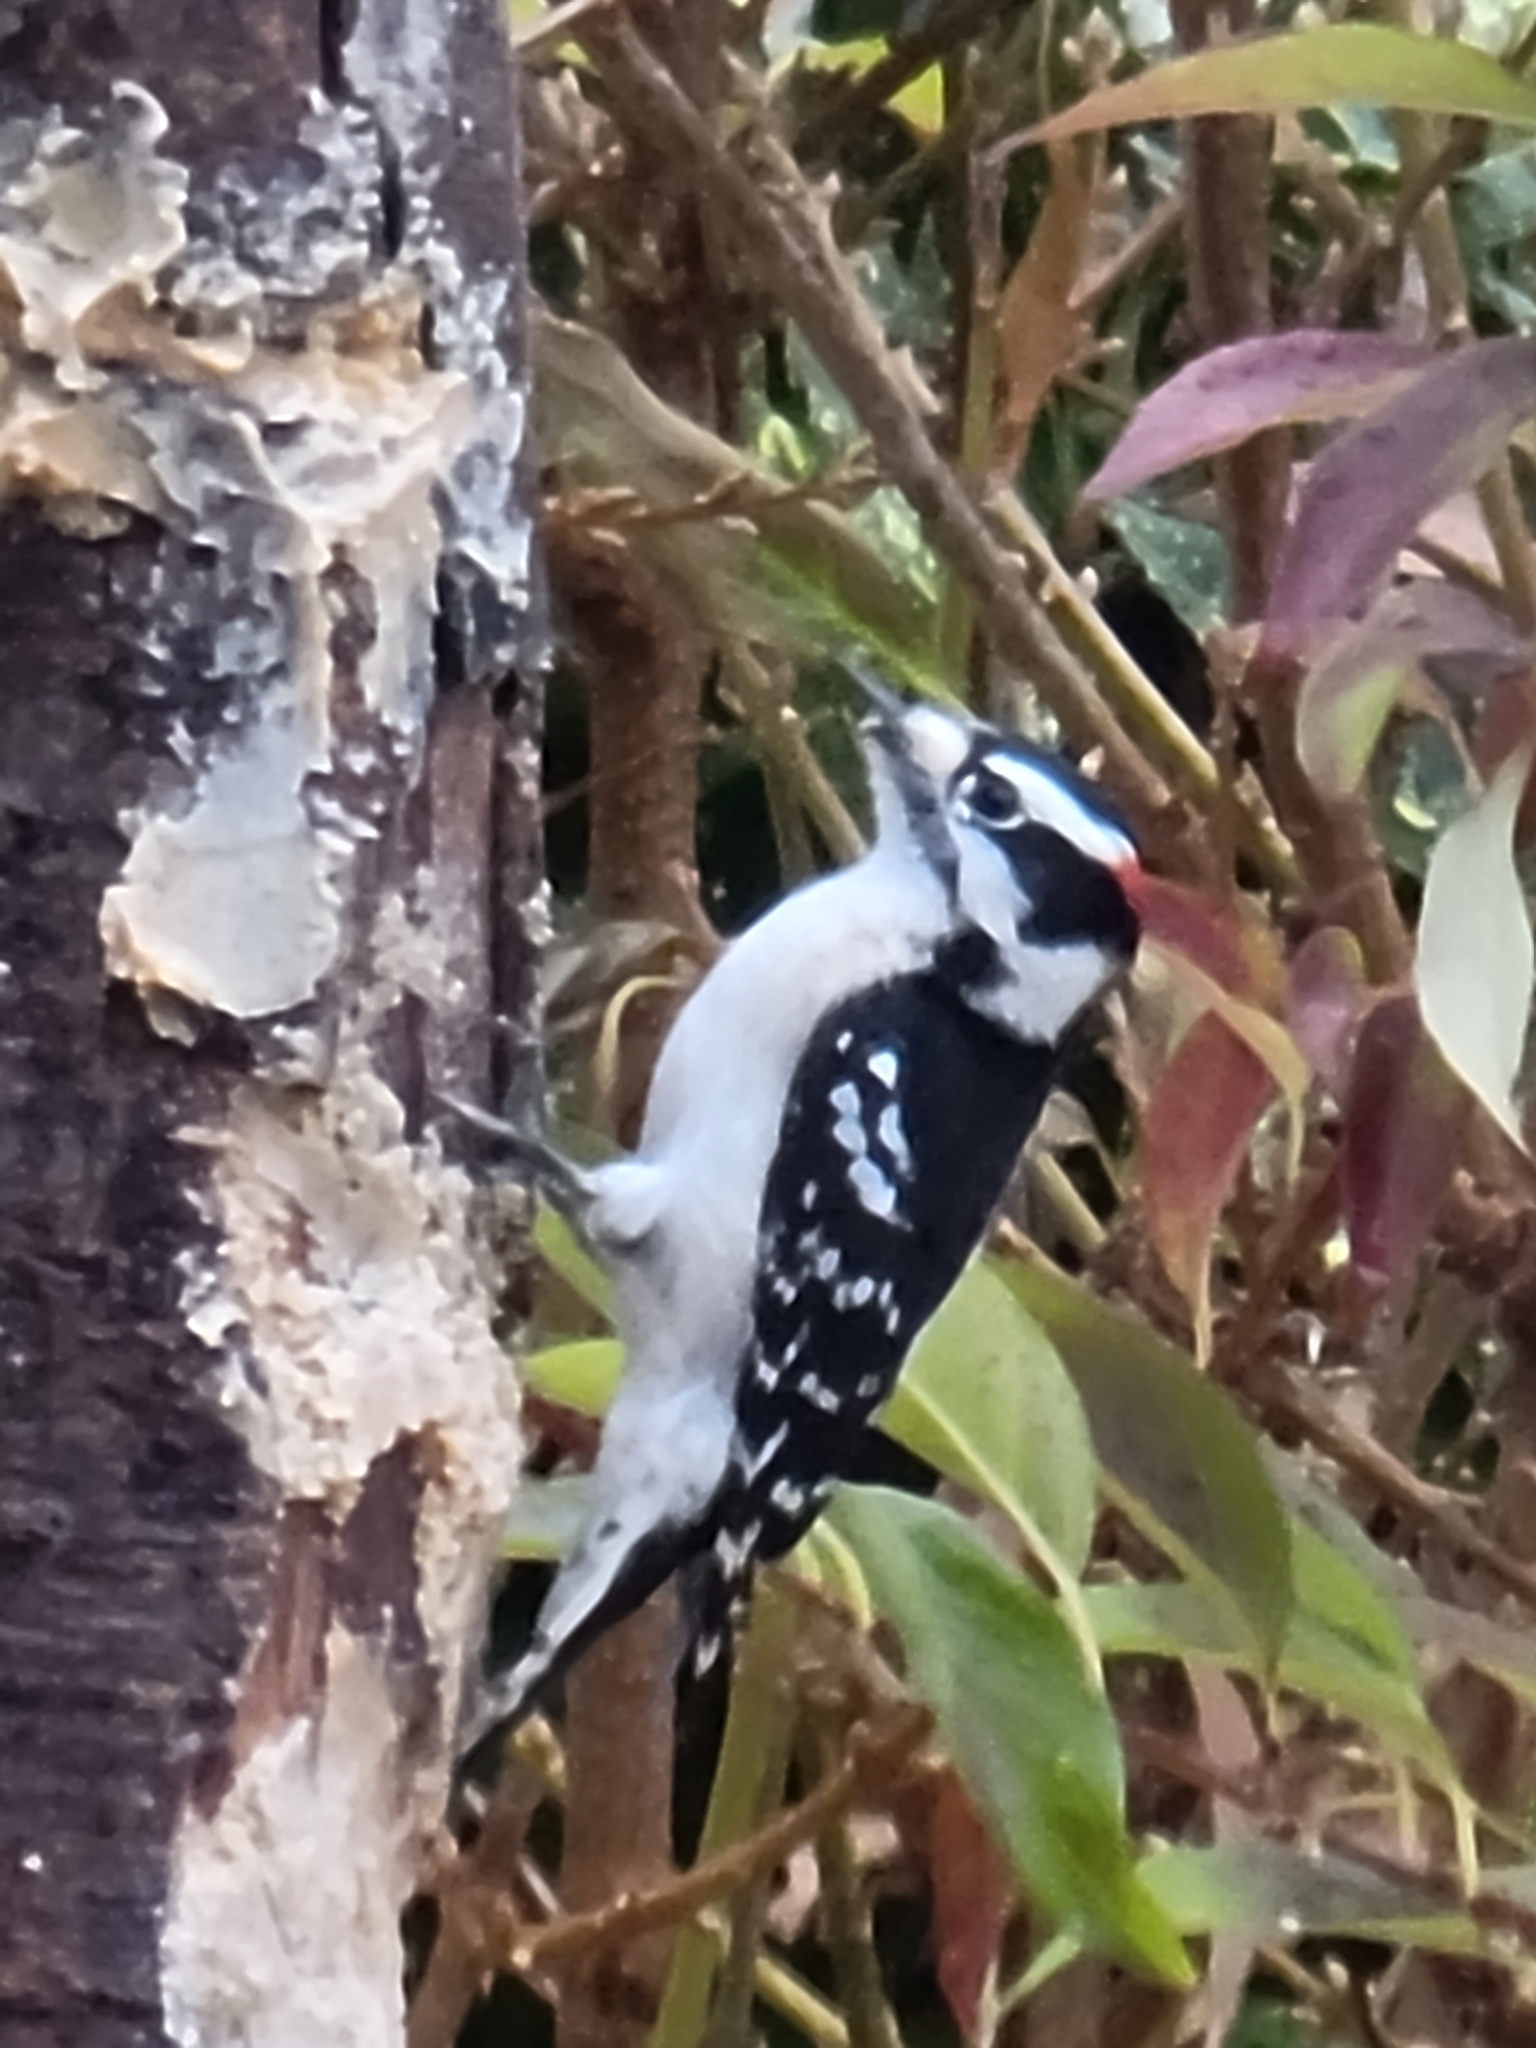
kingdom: Animalia
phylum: Chordata
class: Aves
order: Piciformes
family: Picidae
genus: Dryobates
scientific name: Dryobates pubescens
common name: Downy woodpecker
